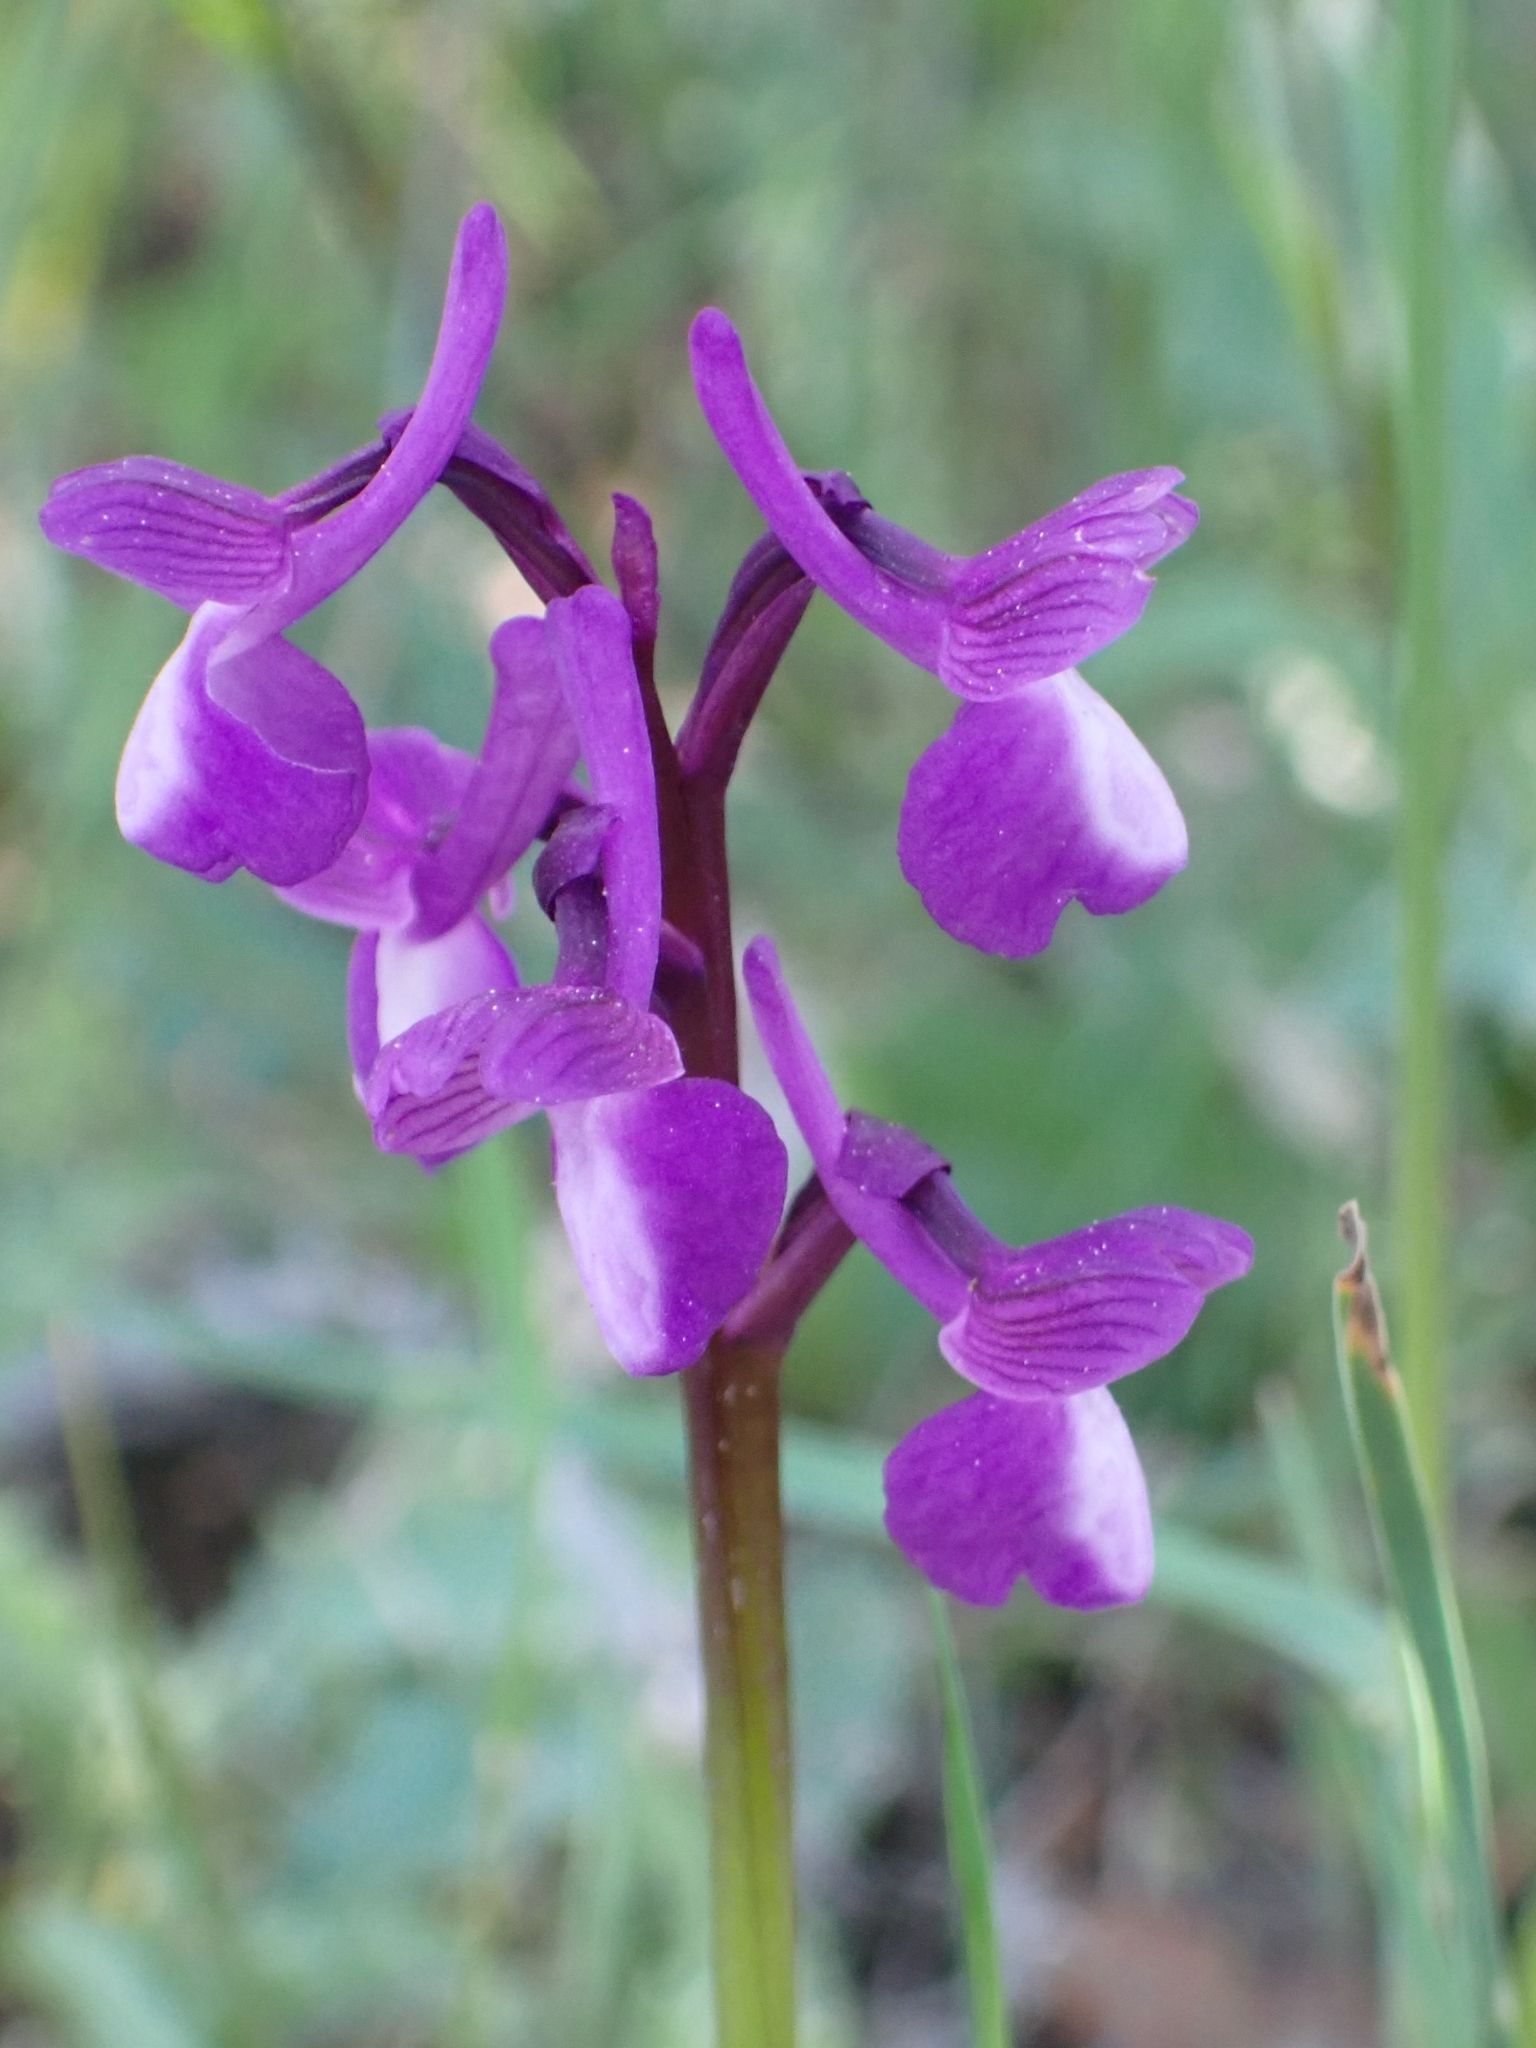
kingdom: Plantae
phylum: Tracheophyta
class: Liliopsida
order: Asparagales
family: Orchidaceae
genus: Anacamptis
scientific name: Anacamptis morio
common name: Green-winged orchid
